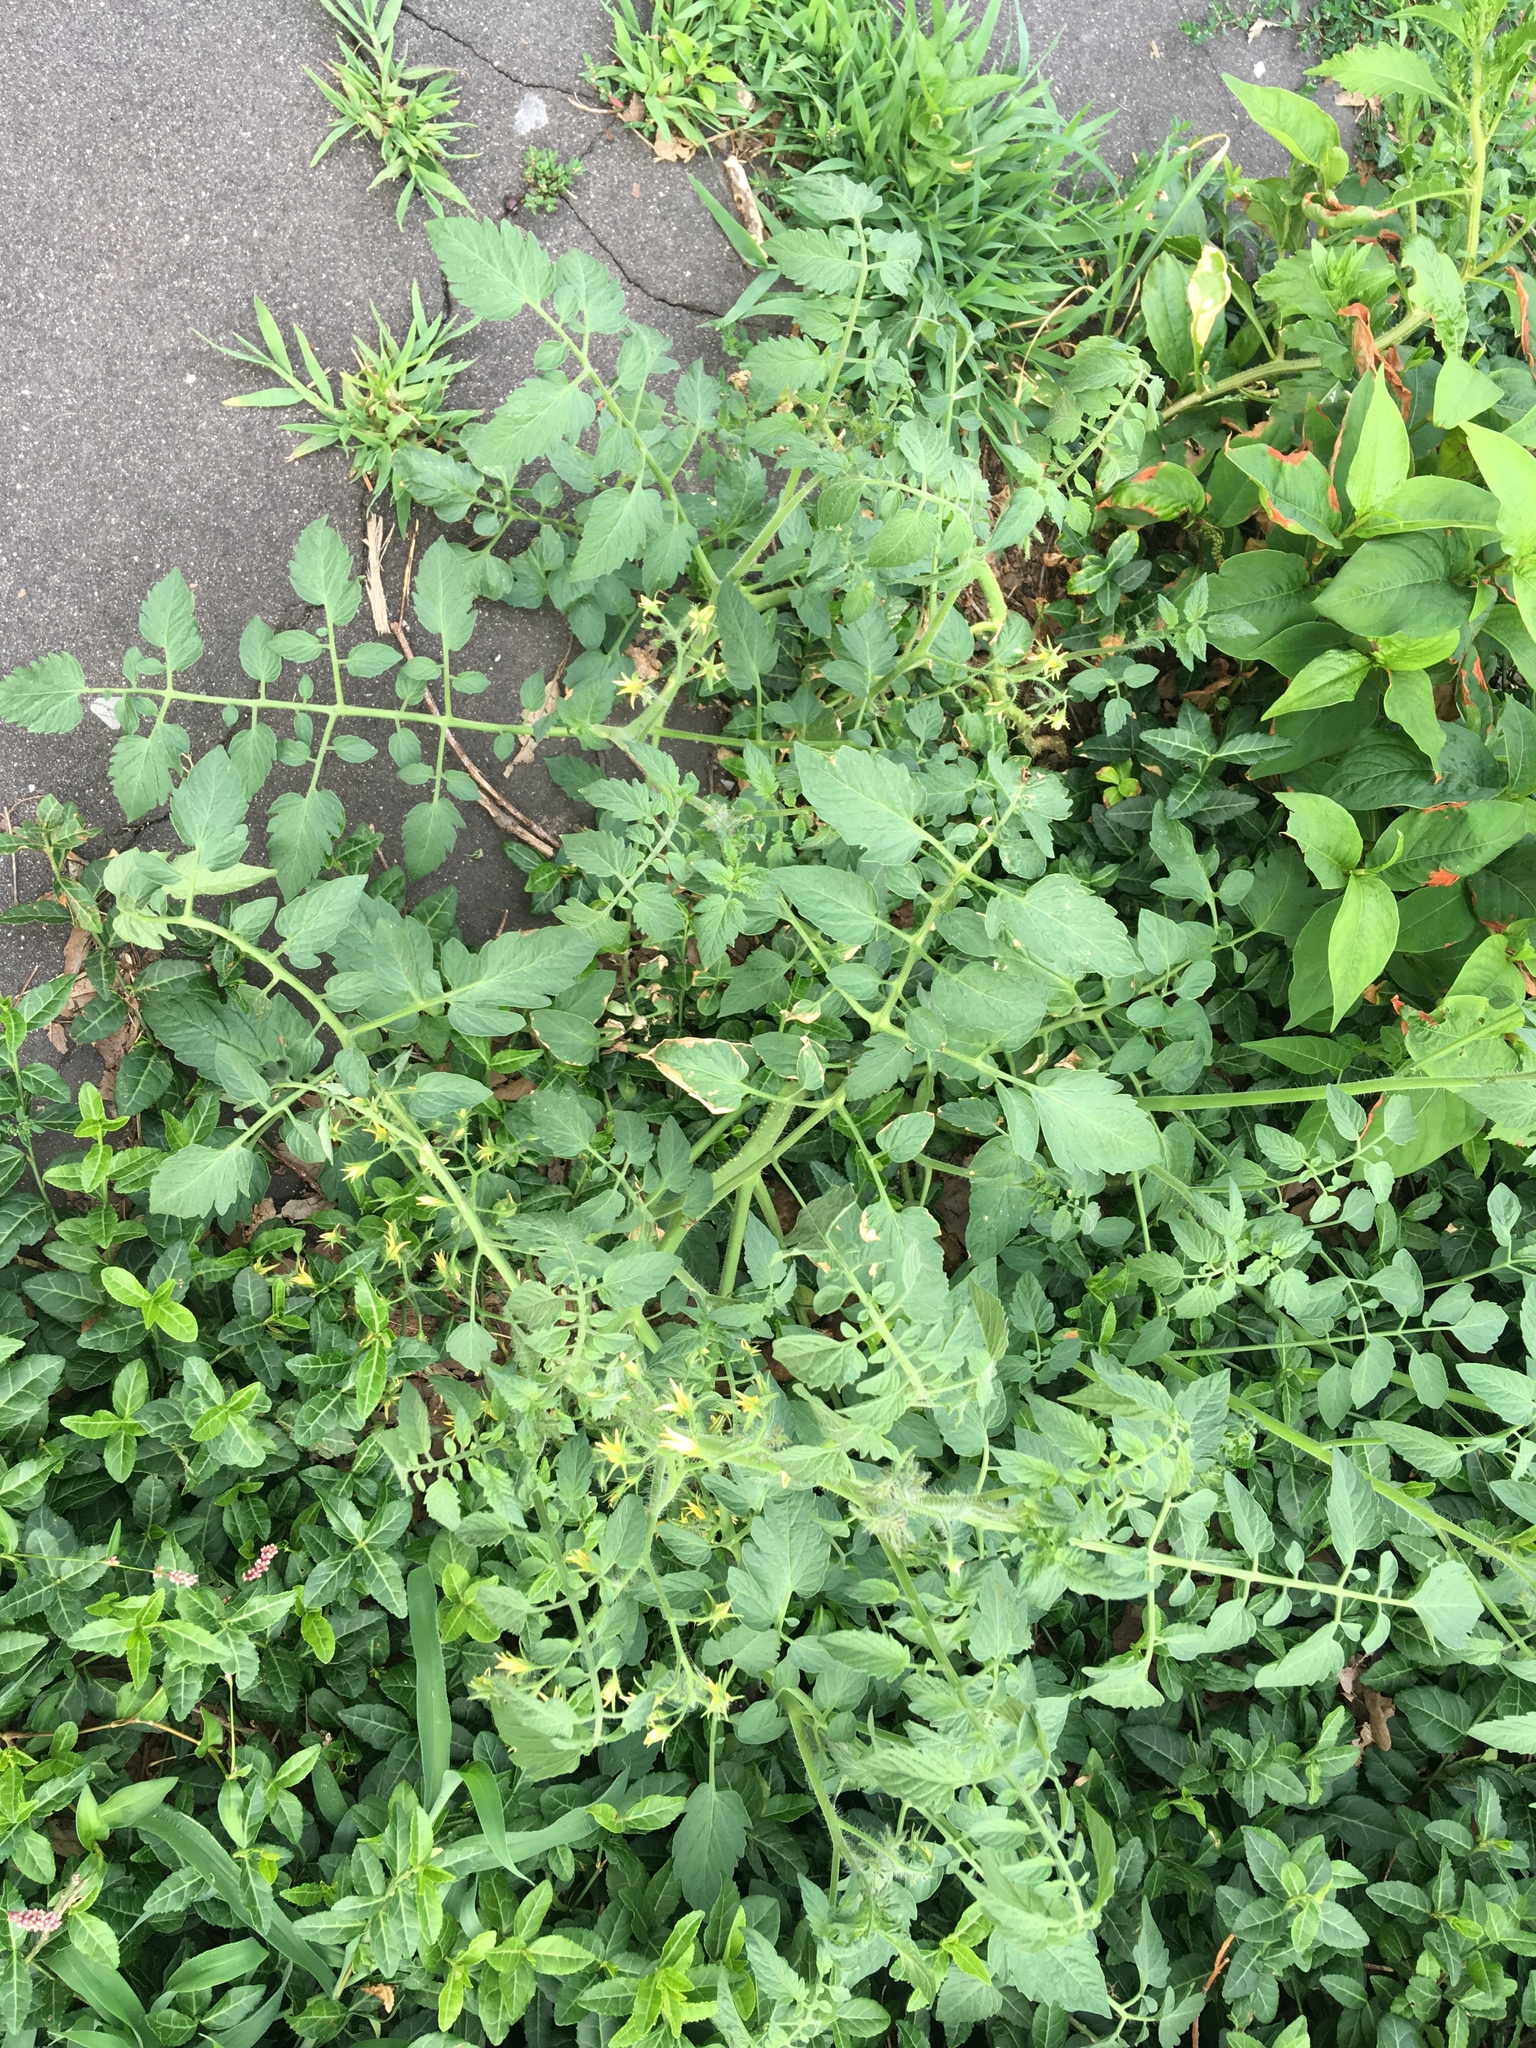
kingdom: Plantae
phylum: Tracheophyta
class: Magnoliopsida
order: Solanales
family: Solanaceae
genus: Solanum
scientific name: Solanum lycopersicum
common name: Garden tomato
